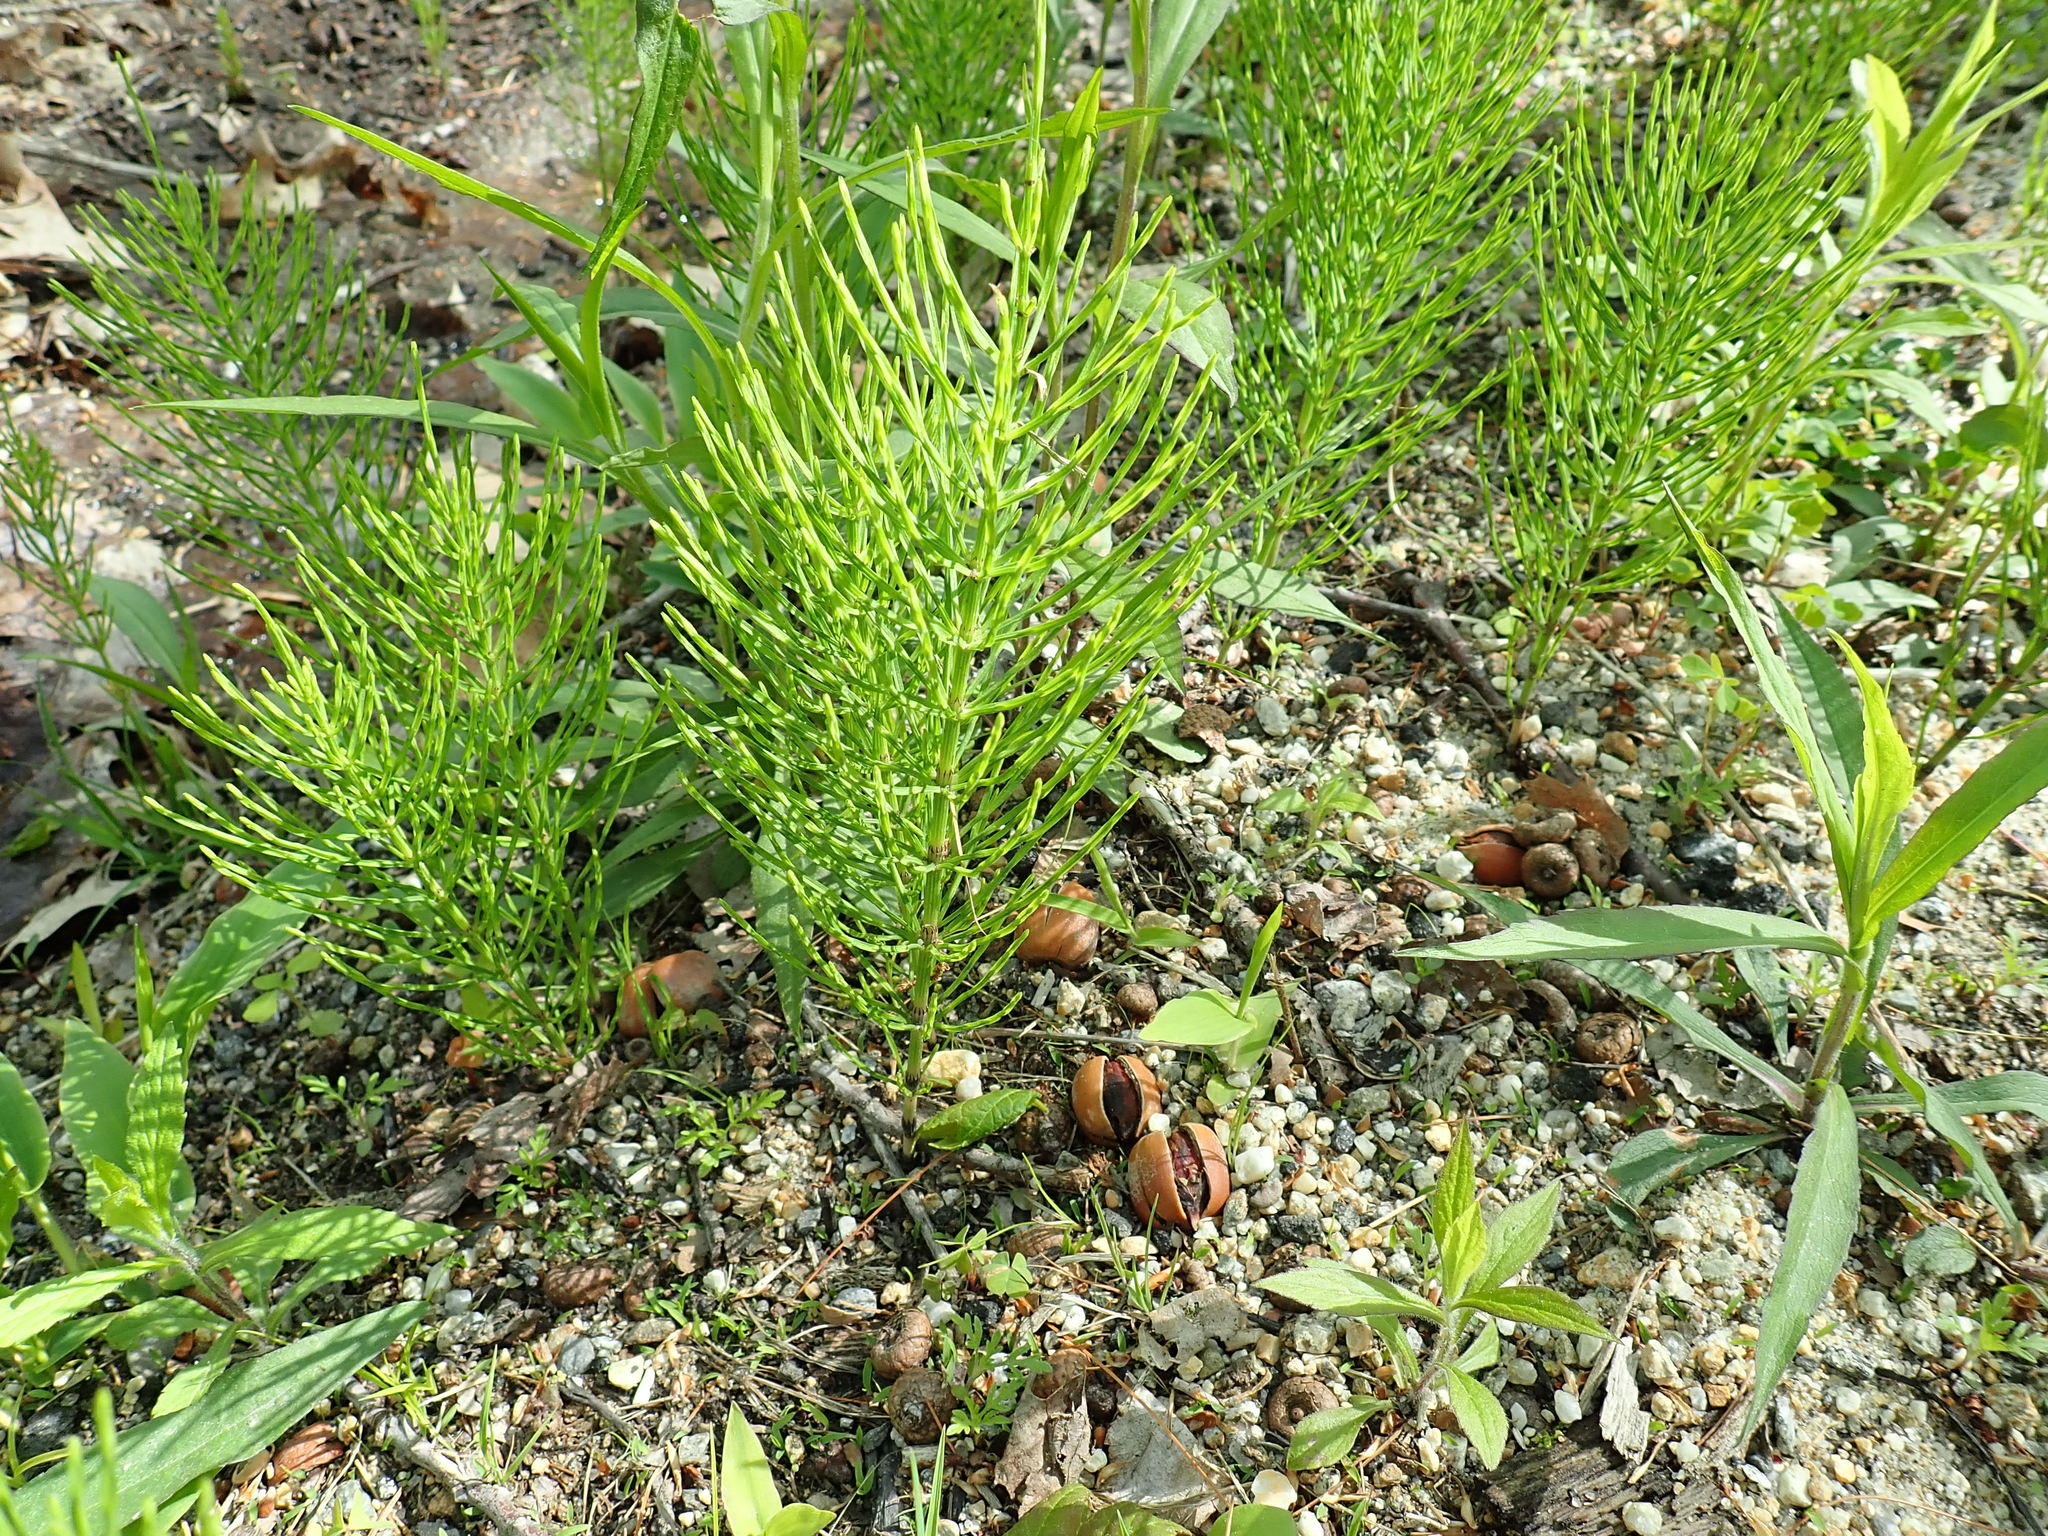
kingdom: Plantae
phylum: Tracheophyta
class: Polypodiopsida
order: Equisetales
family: Equisetaceae
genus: Equisetum
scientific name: Equisetum arvense
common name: Field horsetail
